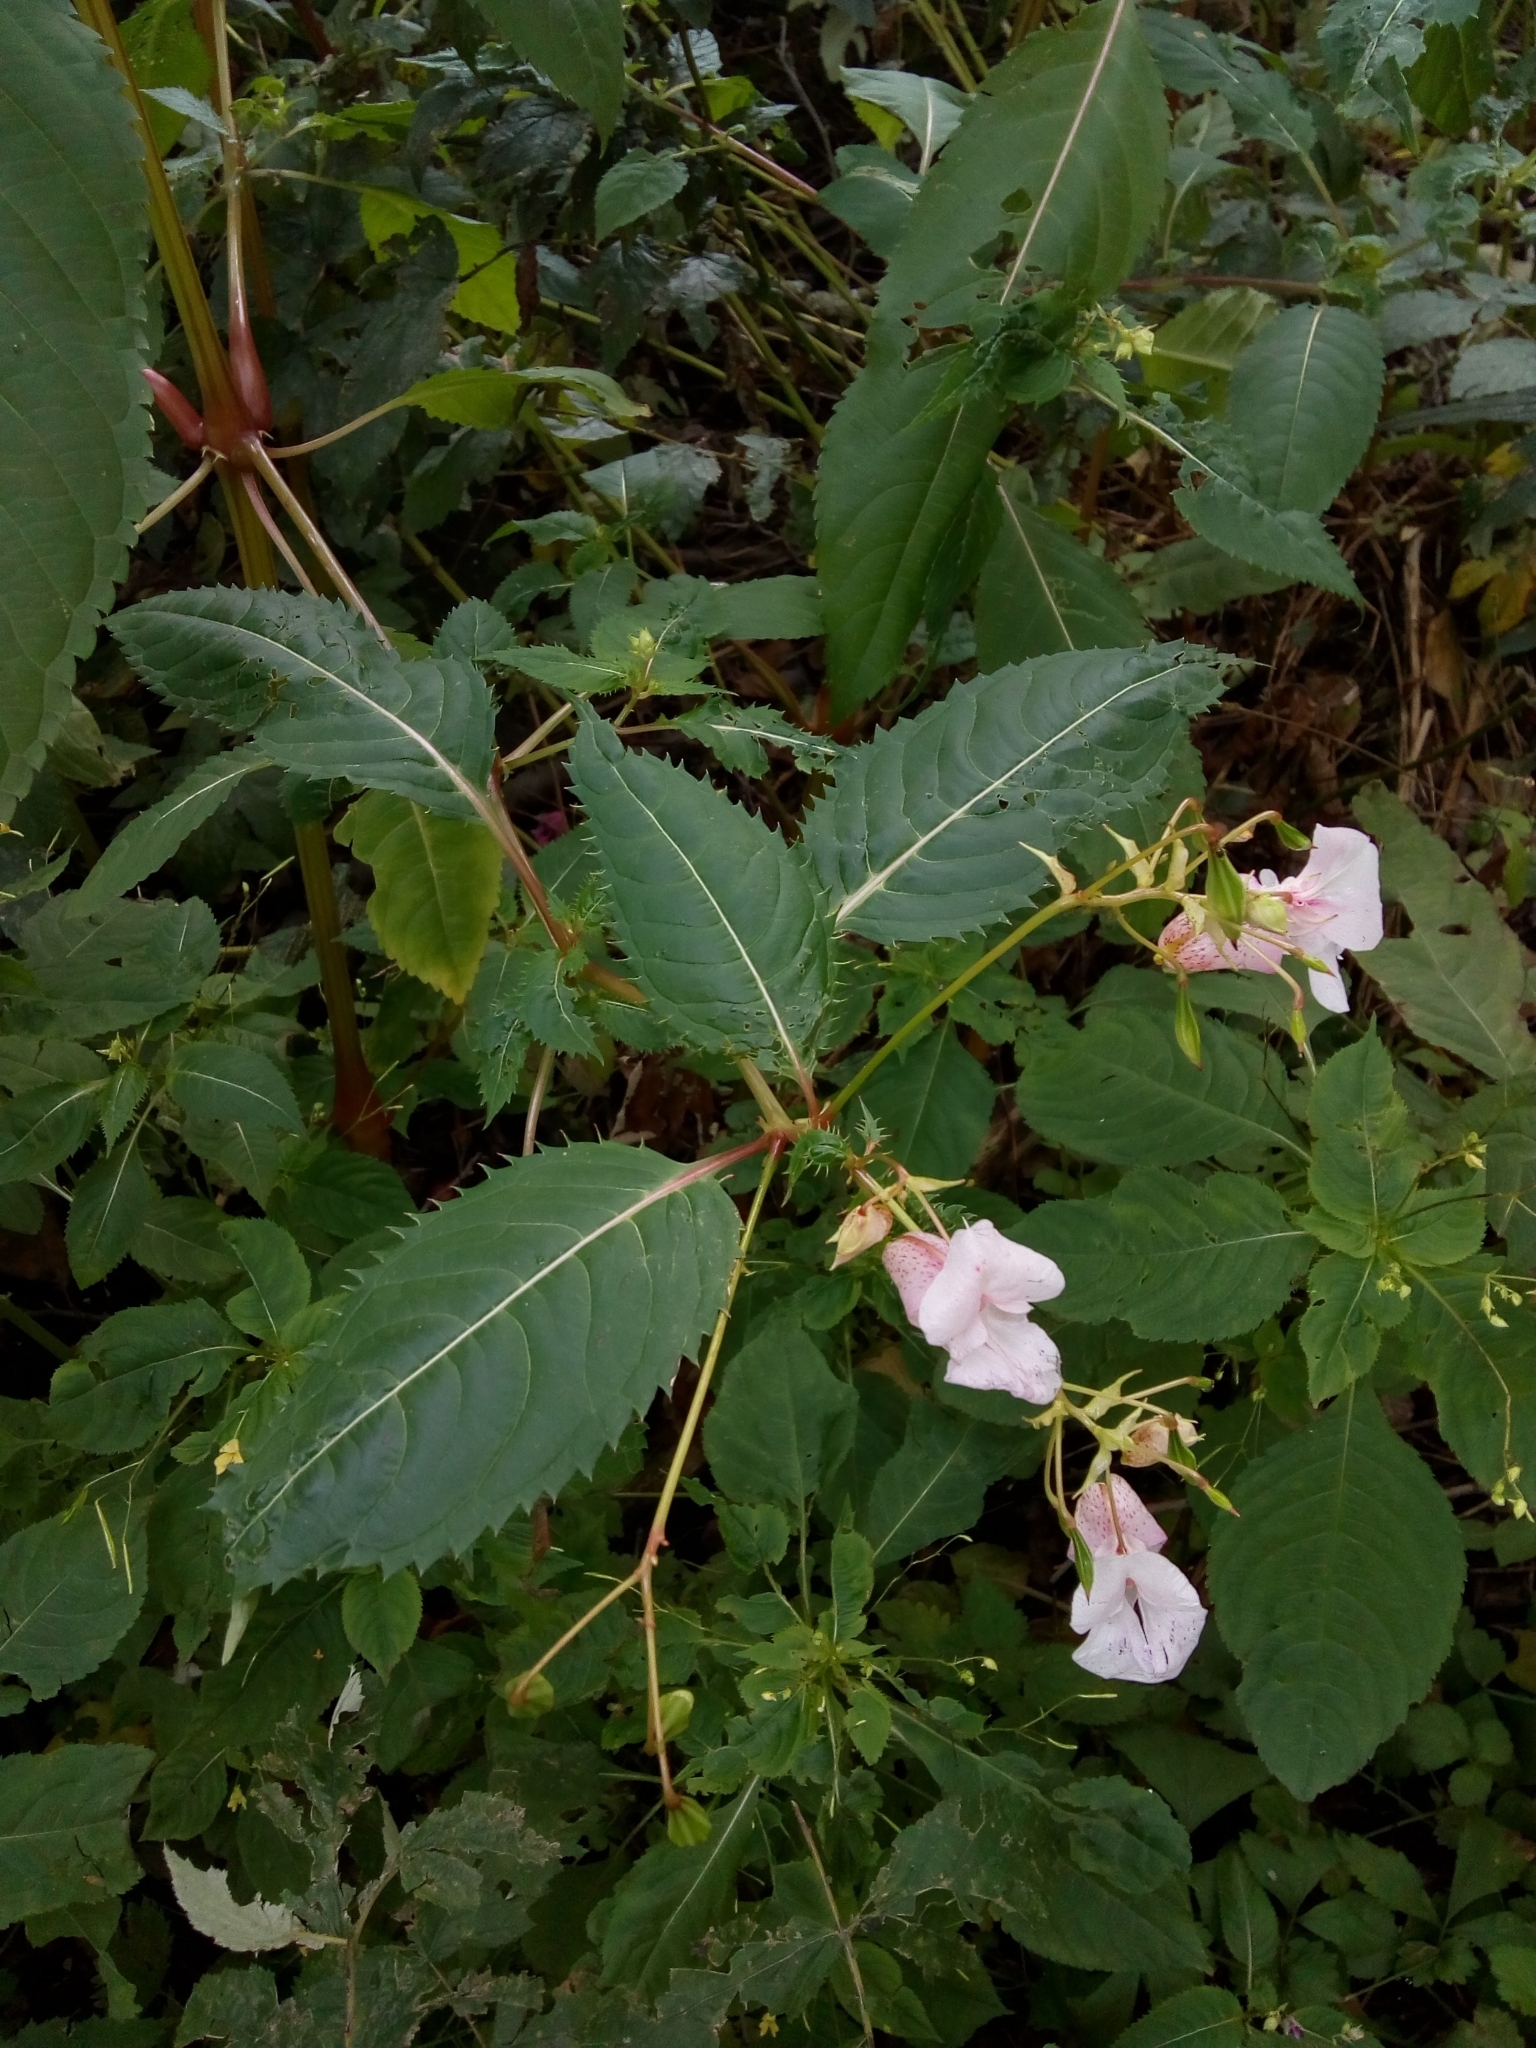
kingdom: Plantae
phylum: Tracheophyta
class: Magnoliopsida
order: Ericales
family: Balsaminaceae
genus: Impatiens
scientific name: Impatiens glandulifera
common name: Himalayan balsam
